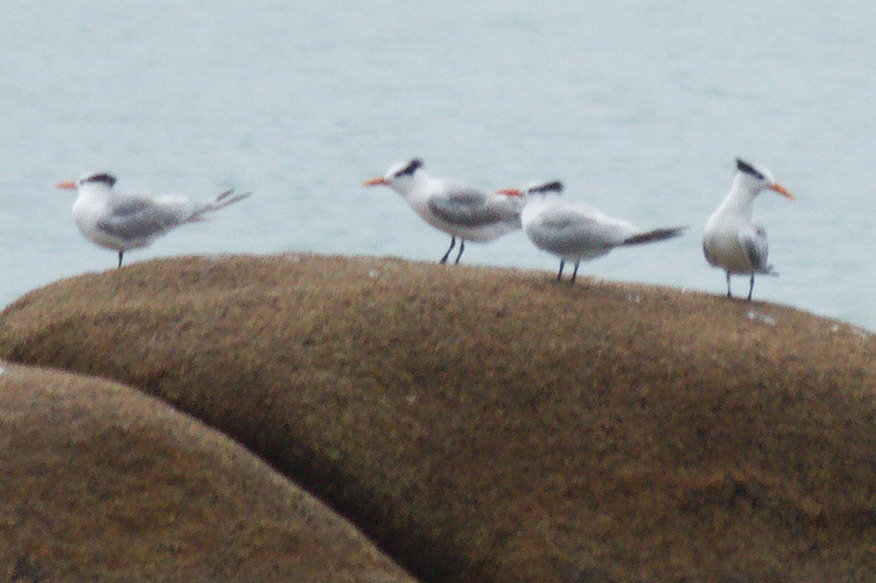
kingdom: Animalia
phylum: Chordata
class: Aves
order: Charadriiformes
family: Laridae
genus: Thalasseus
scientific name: Thalasseus maximus
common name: Royal tern
